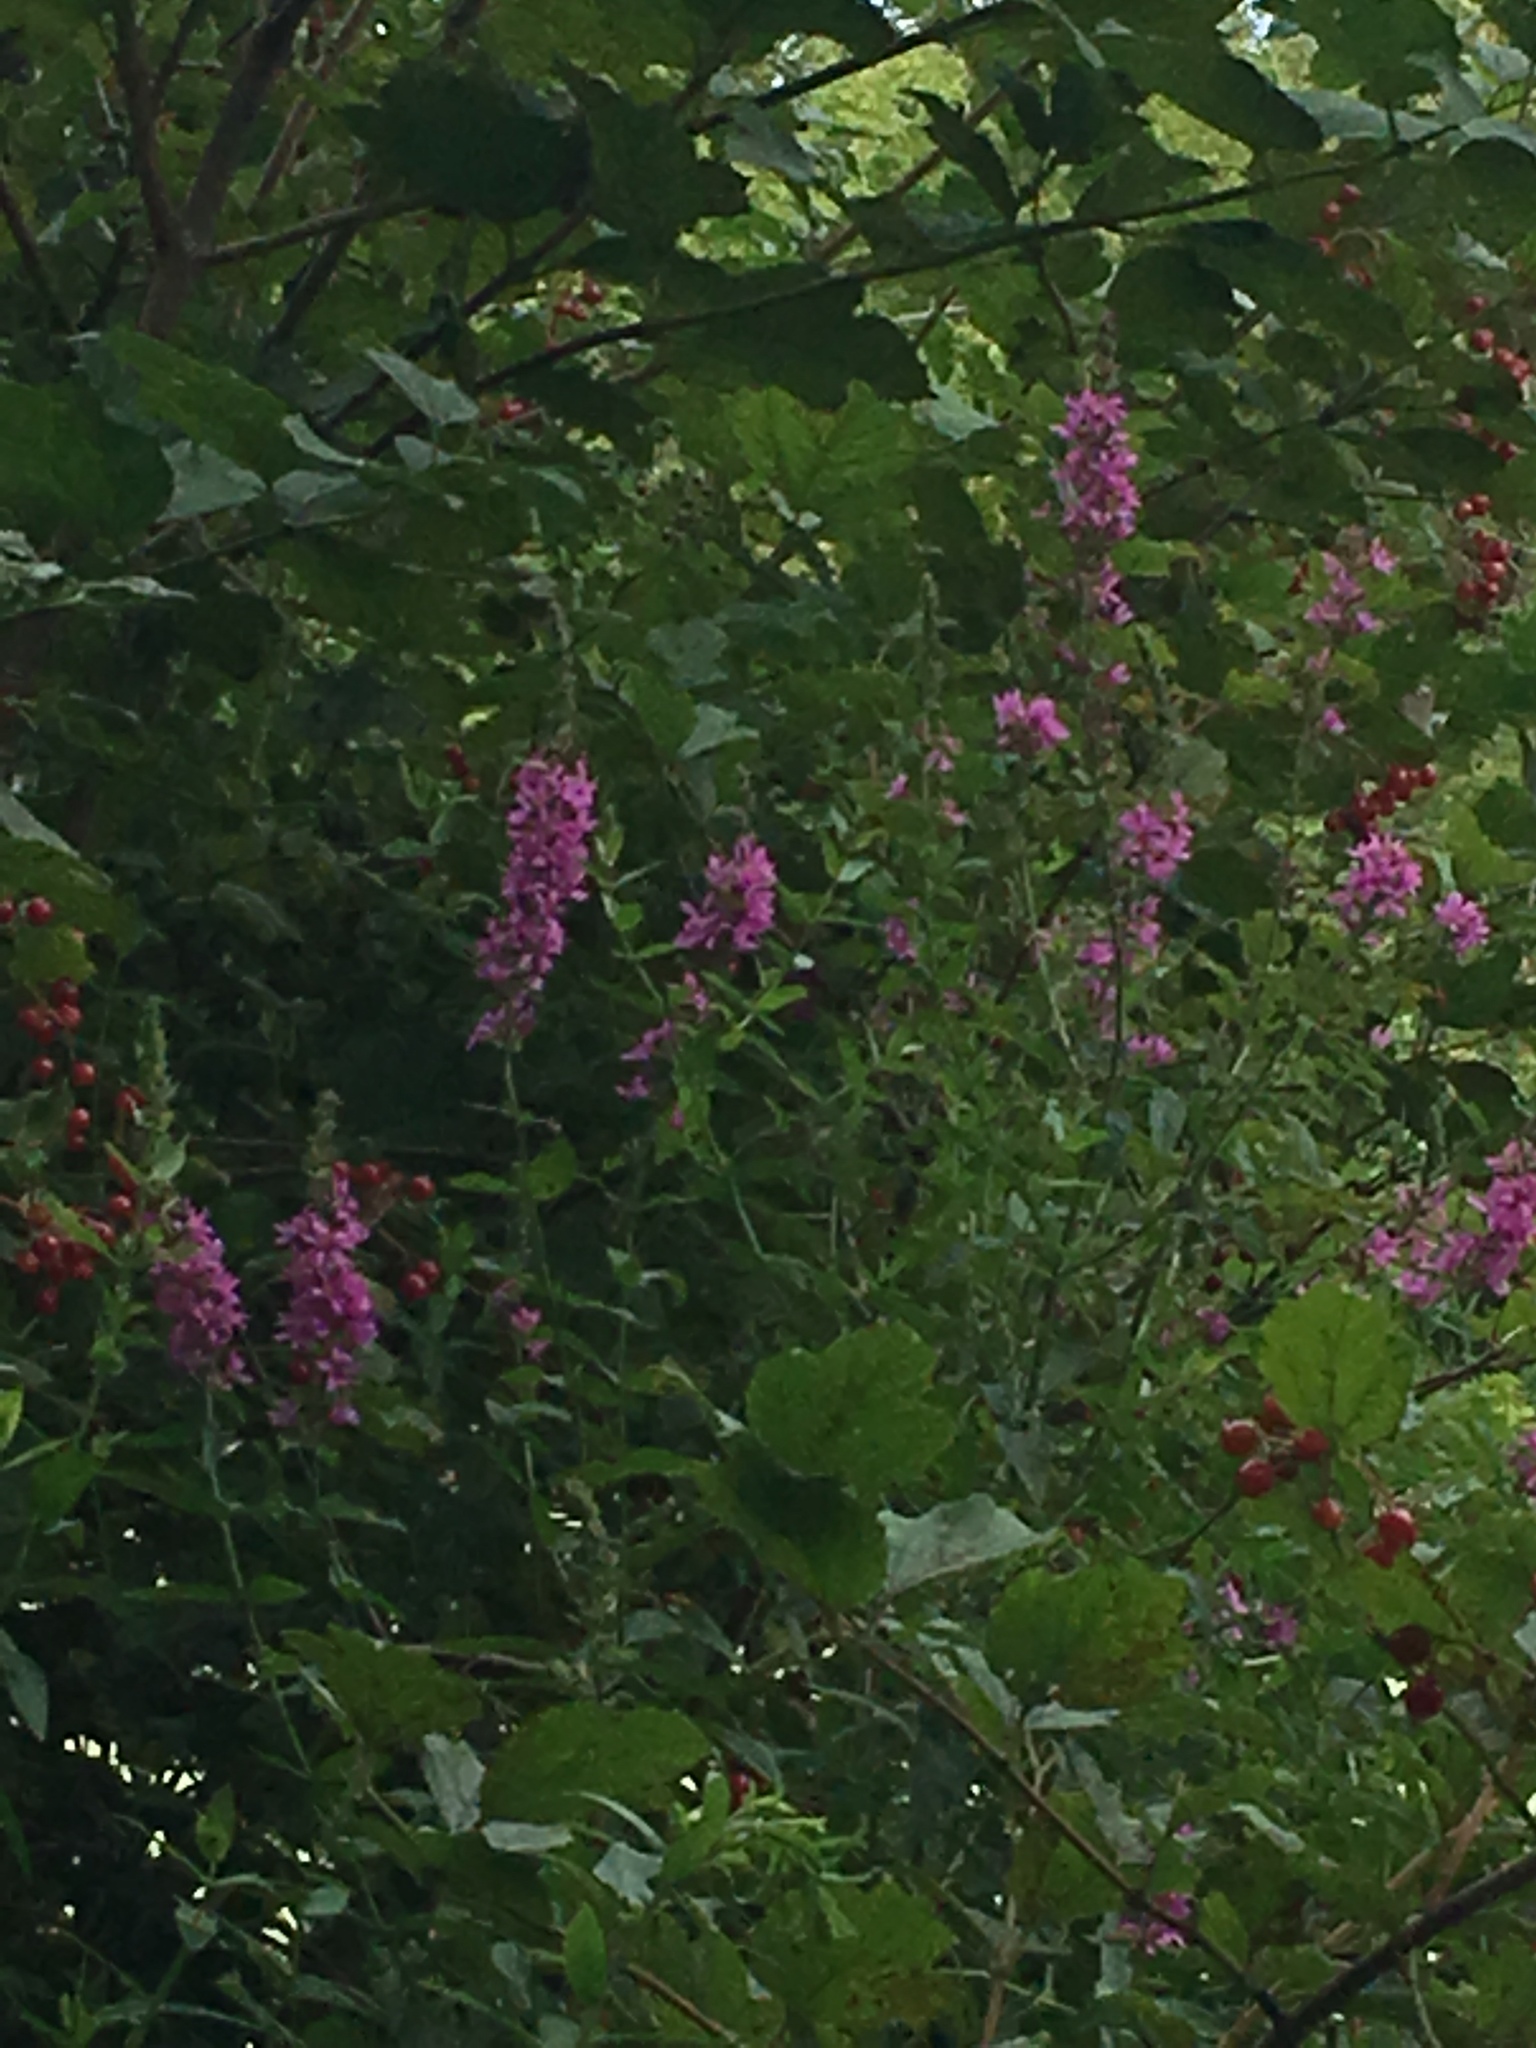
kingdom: Plantae
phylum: Tracheophyta
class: Magnoliopsida
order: Myrtales
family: Lythraceae
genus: Lythrum
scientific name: Lythrum salicaria
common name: Purple loosestrife
